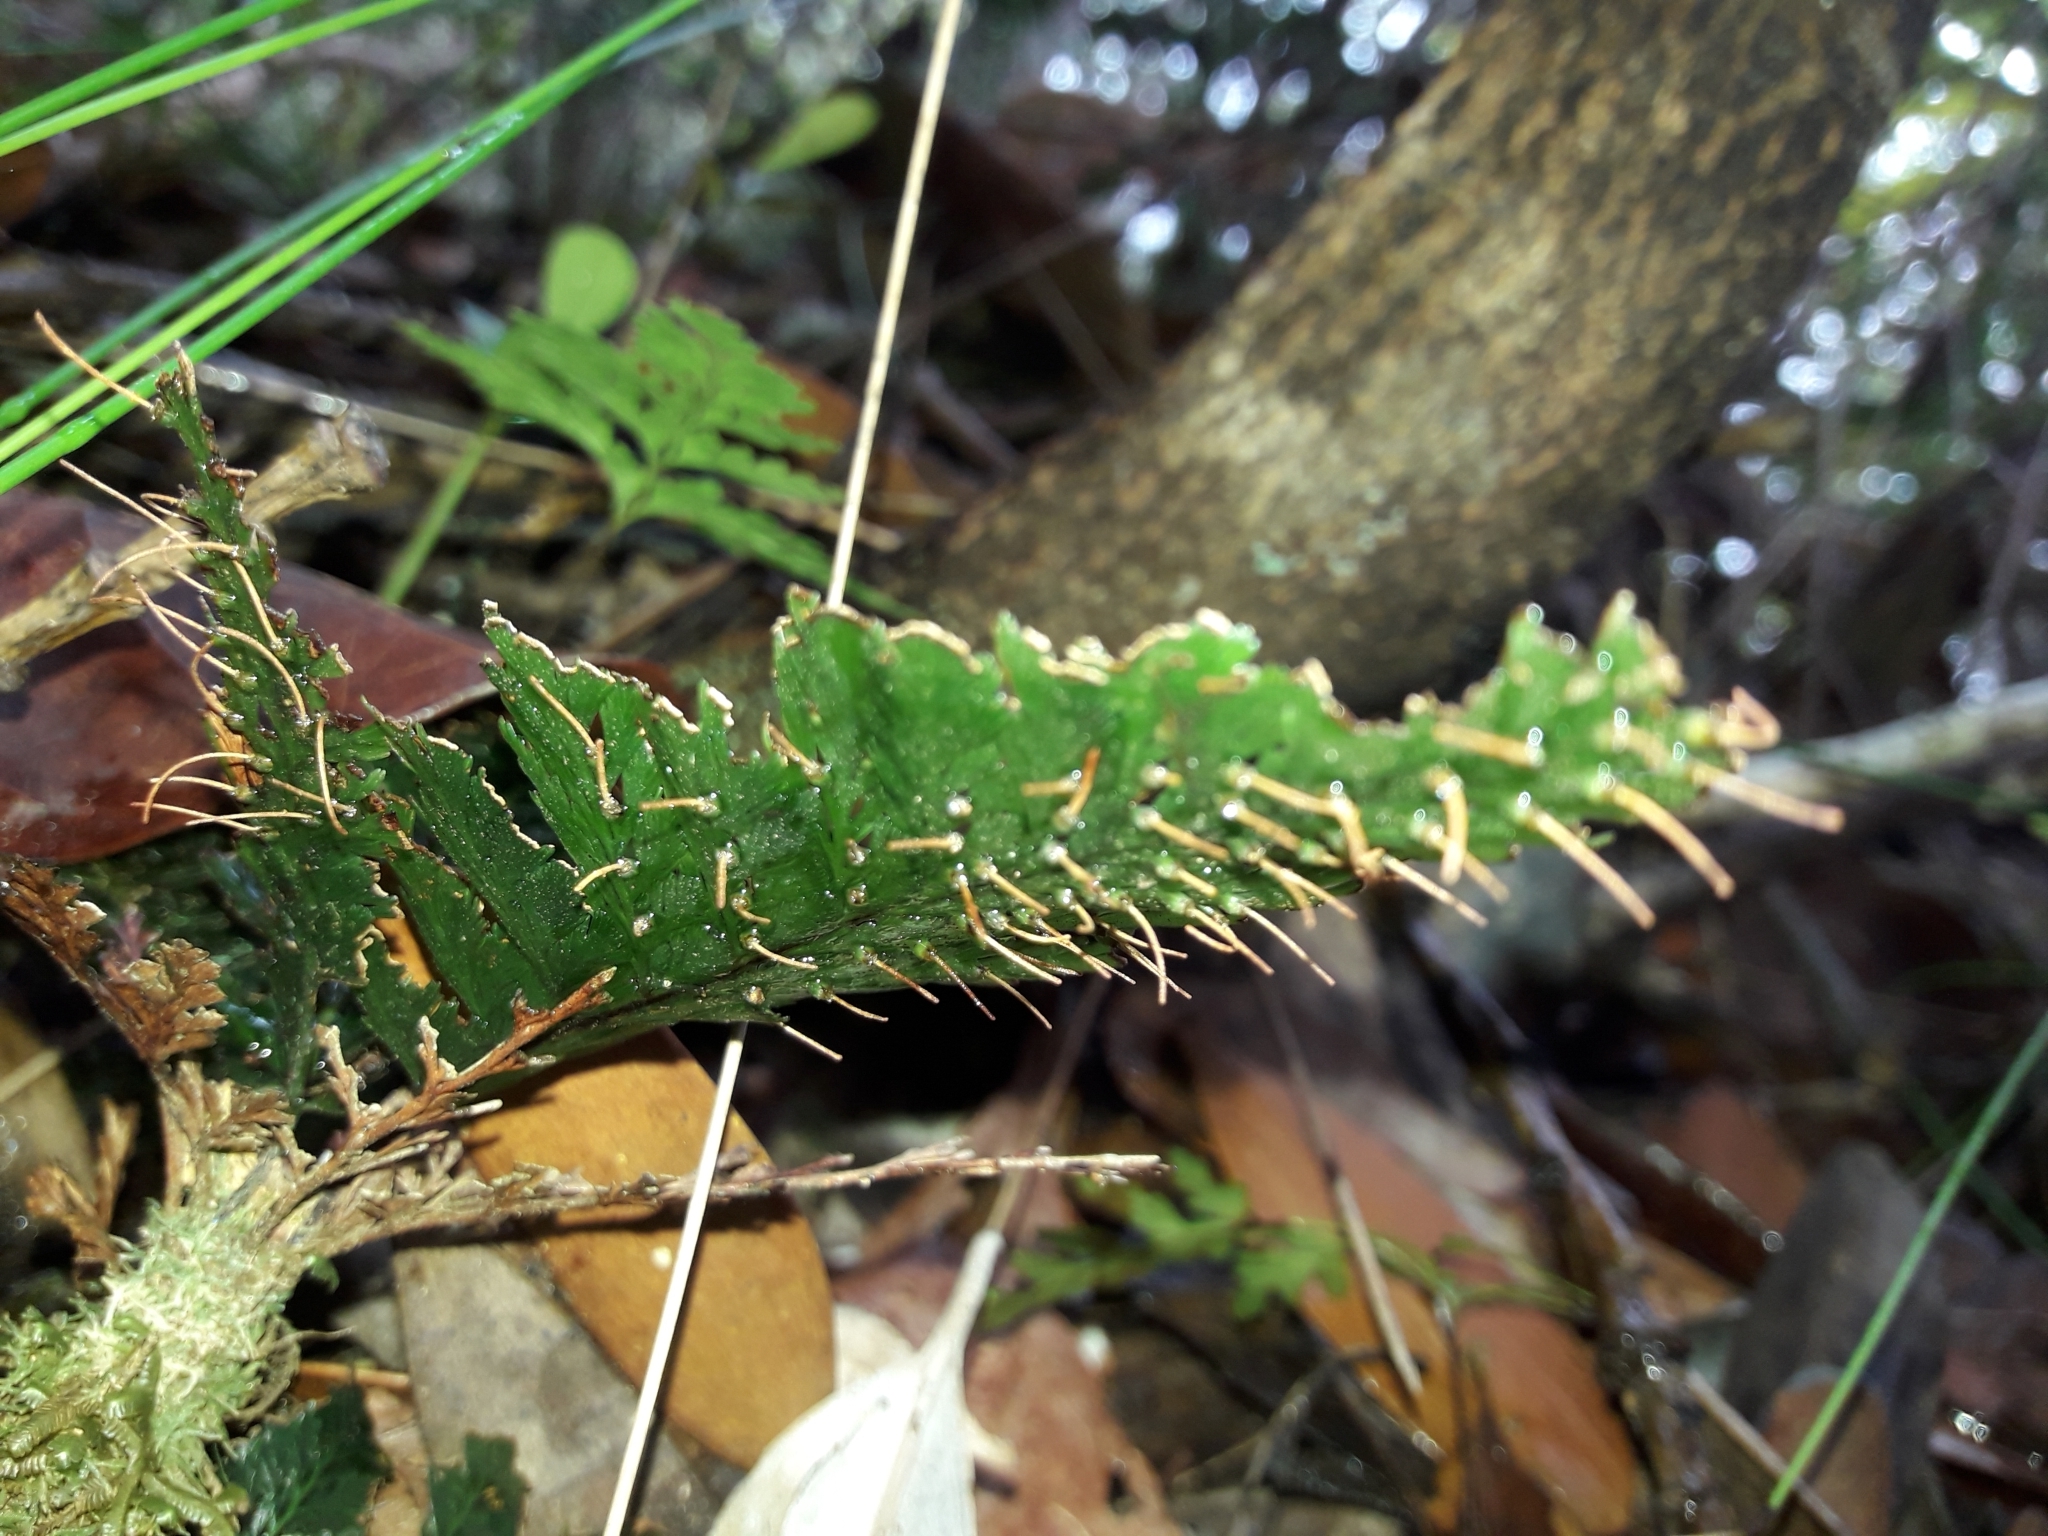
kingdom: Plantae
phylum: Tracheophyta
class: Polypodiopsida
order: Hymenophyllales
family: Hymenophyllaceae
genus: Abrodictyum
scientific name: Abrodictyum dentatum
